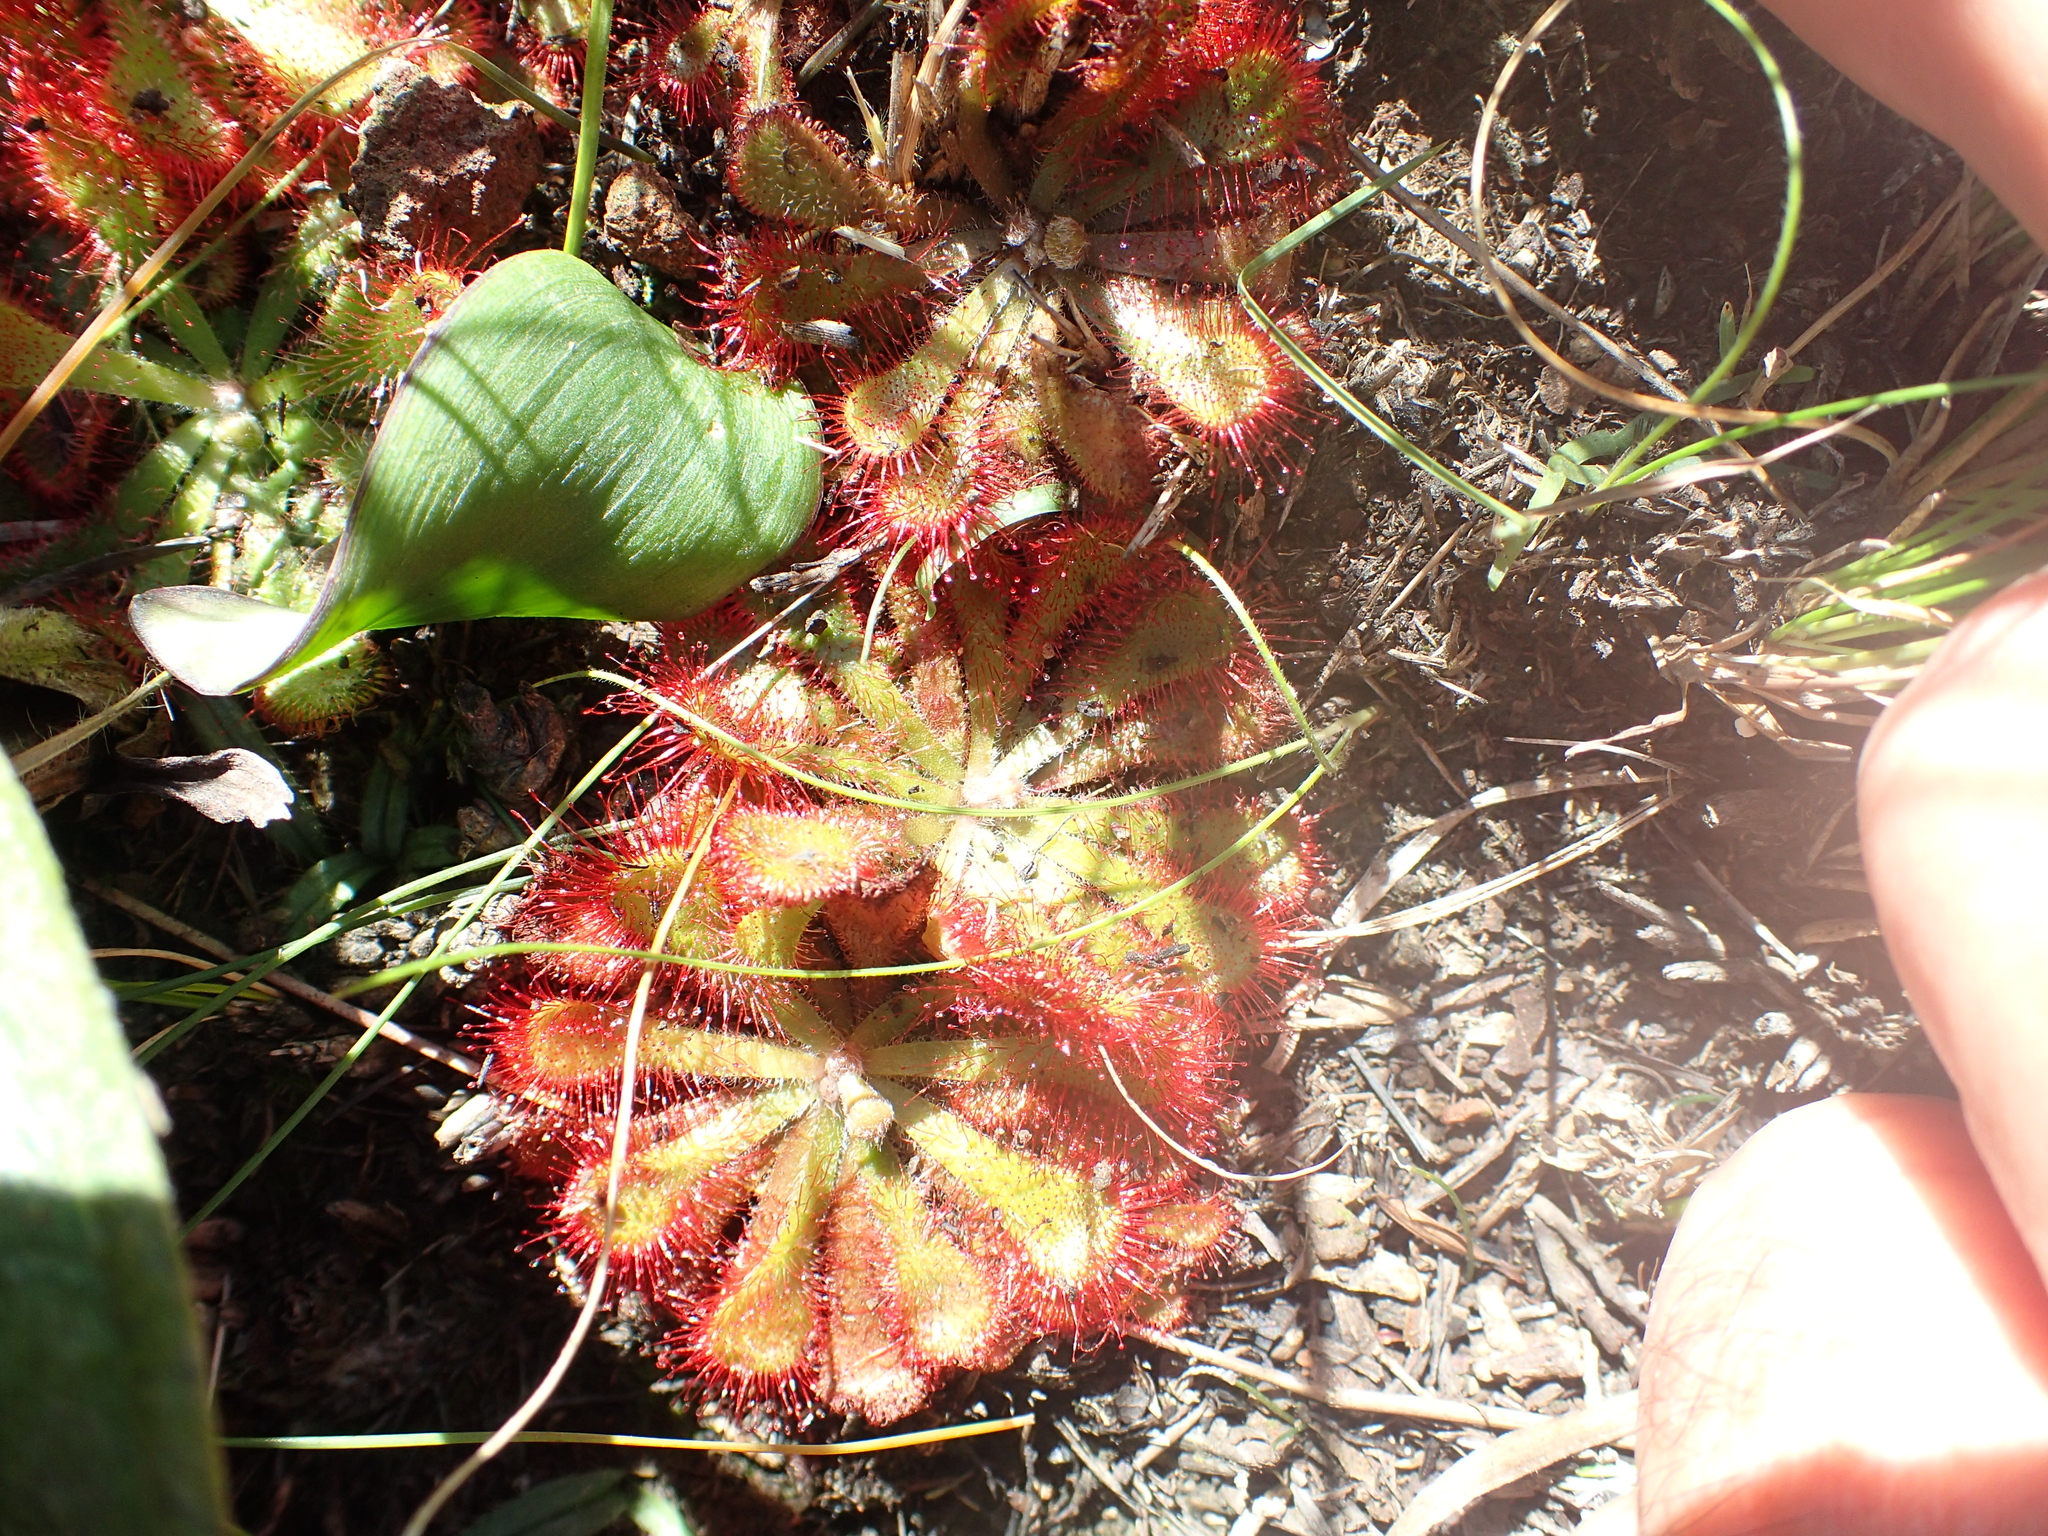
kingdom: Plantae
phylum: Tracheophyta
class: Magnoliopsida
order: Caryophyllales
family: Droseraceae
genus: Drosera
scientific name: Drosera natalensis
